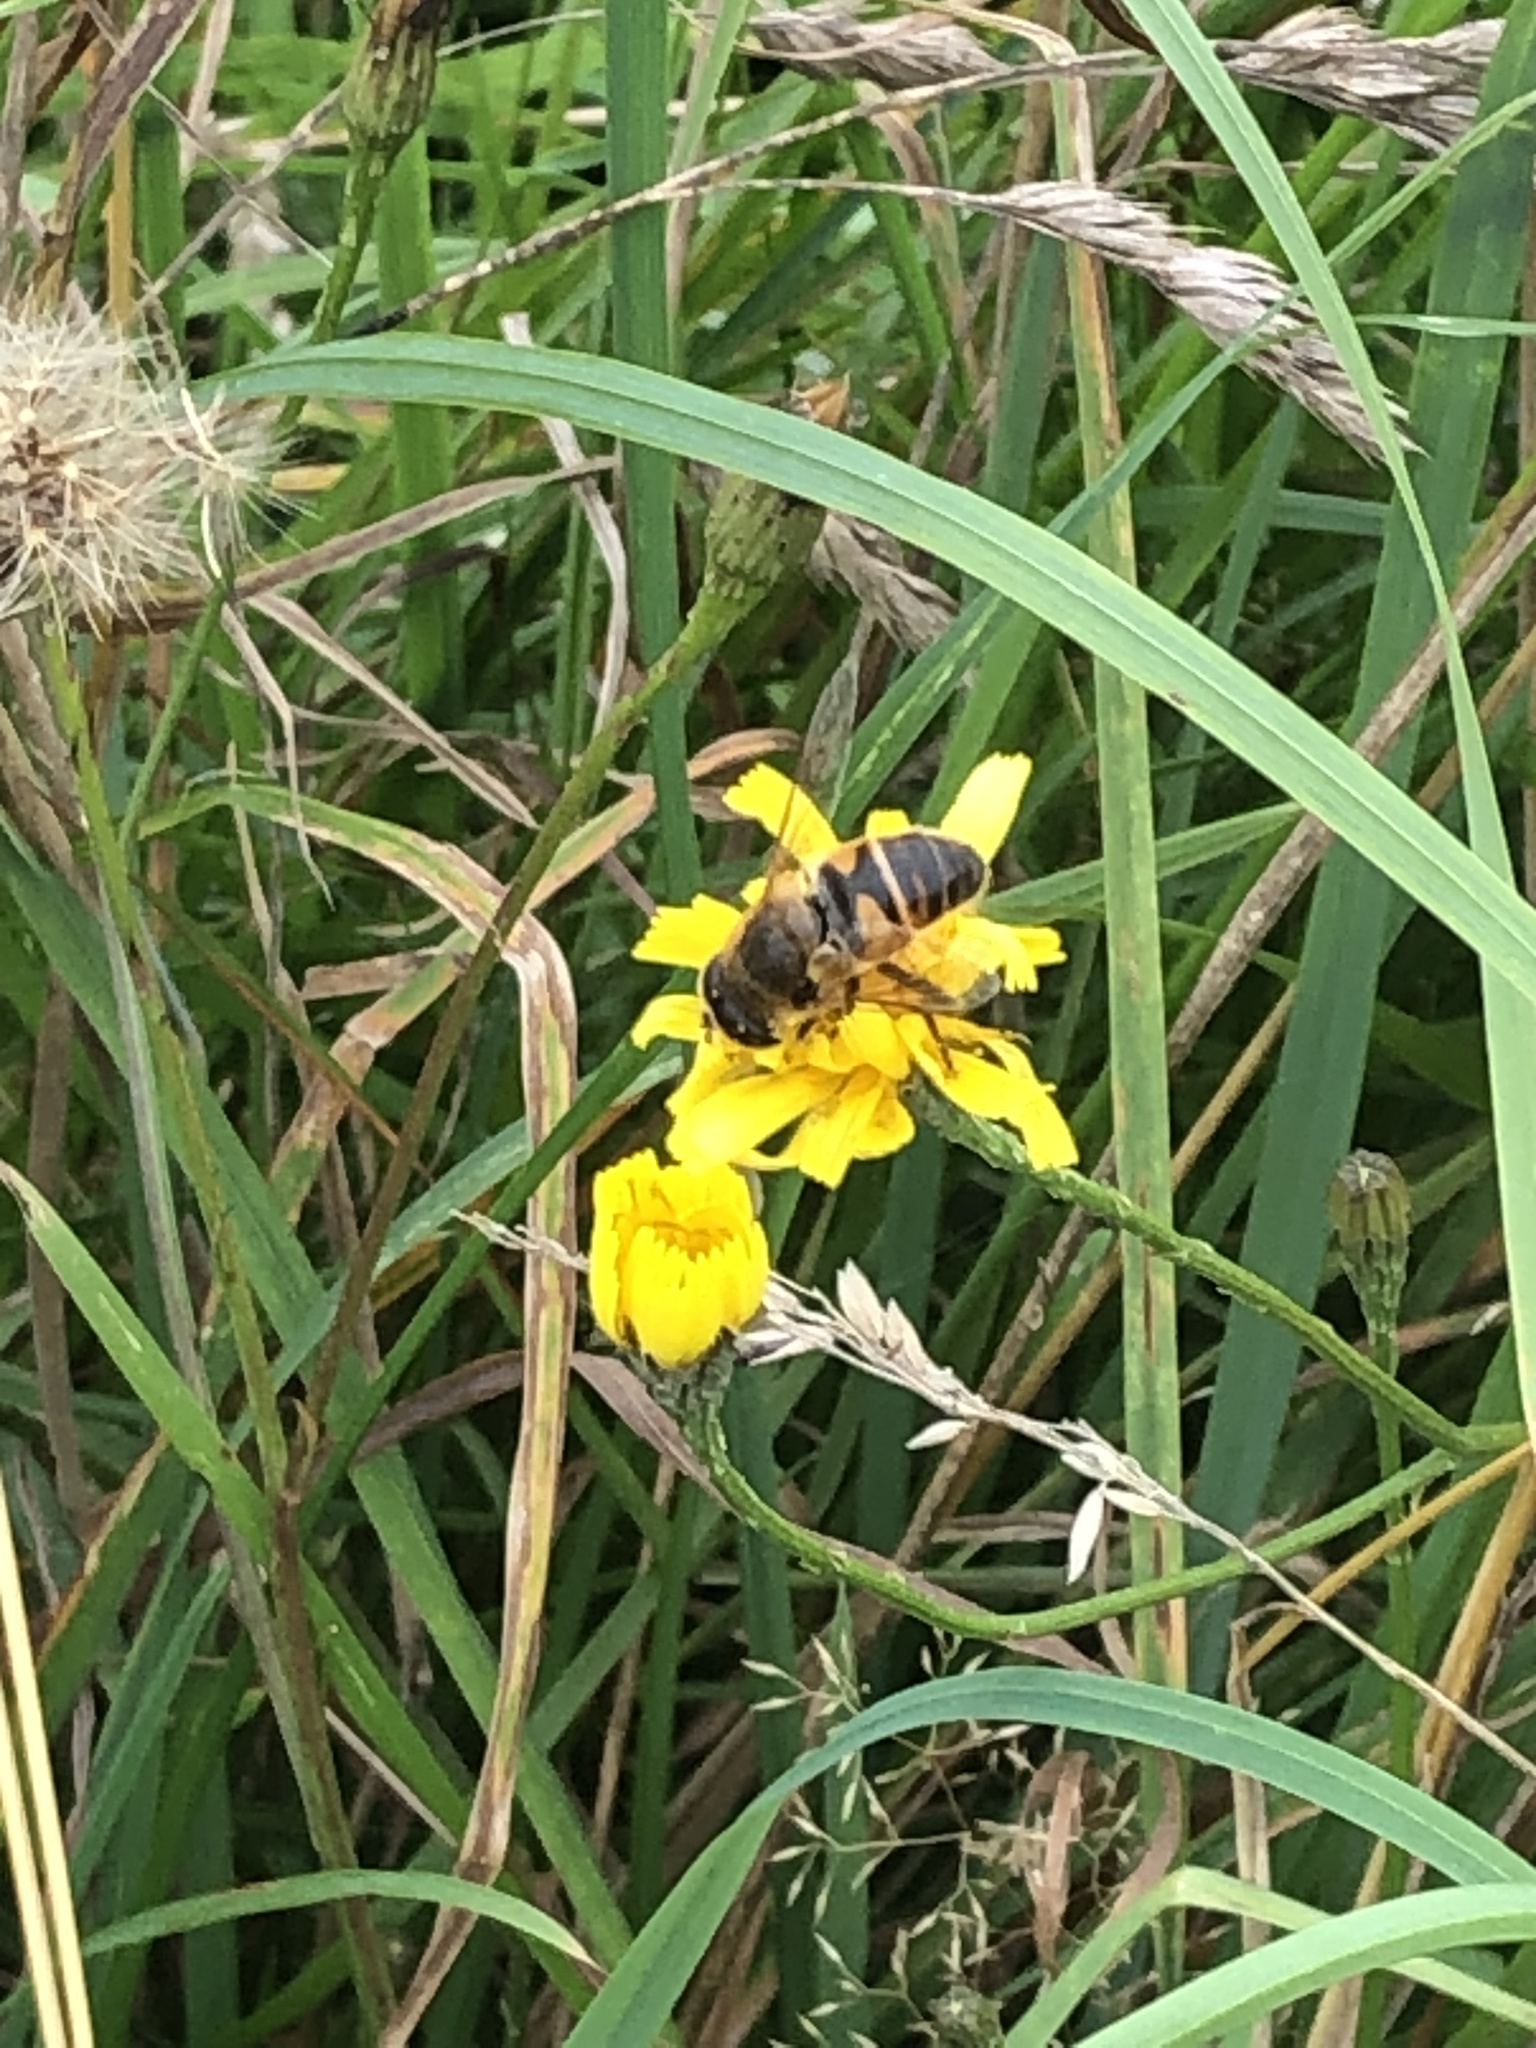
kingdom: Animalia
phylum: Arthropoda
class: Insecta
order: Diptera
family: Syrphidae
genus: Eristalis
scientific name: Eristalis tenax
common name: Drone fly
